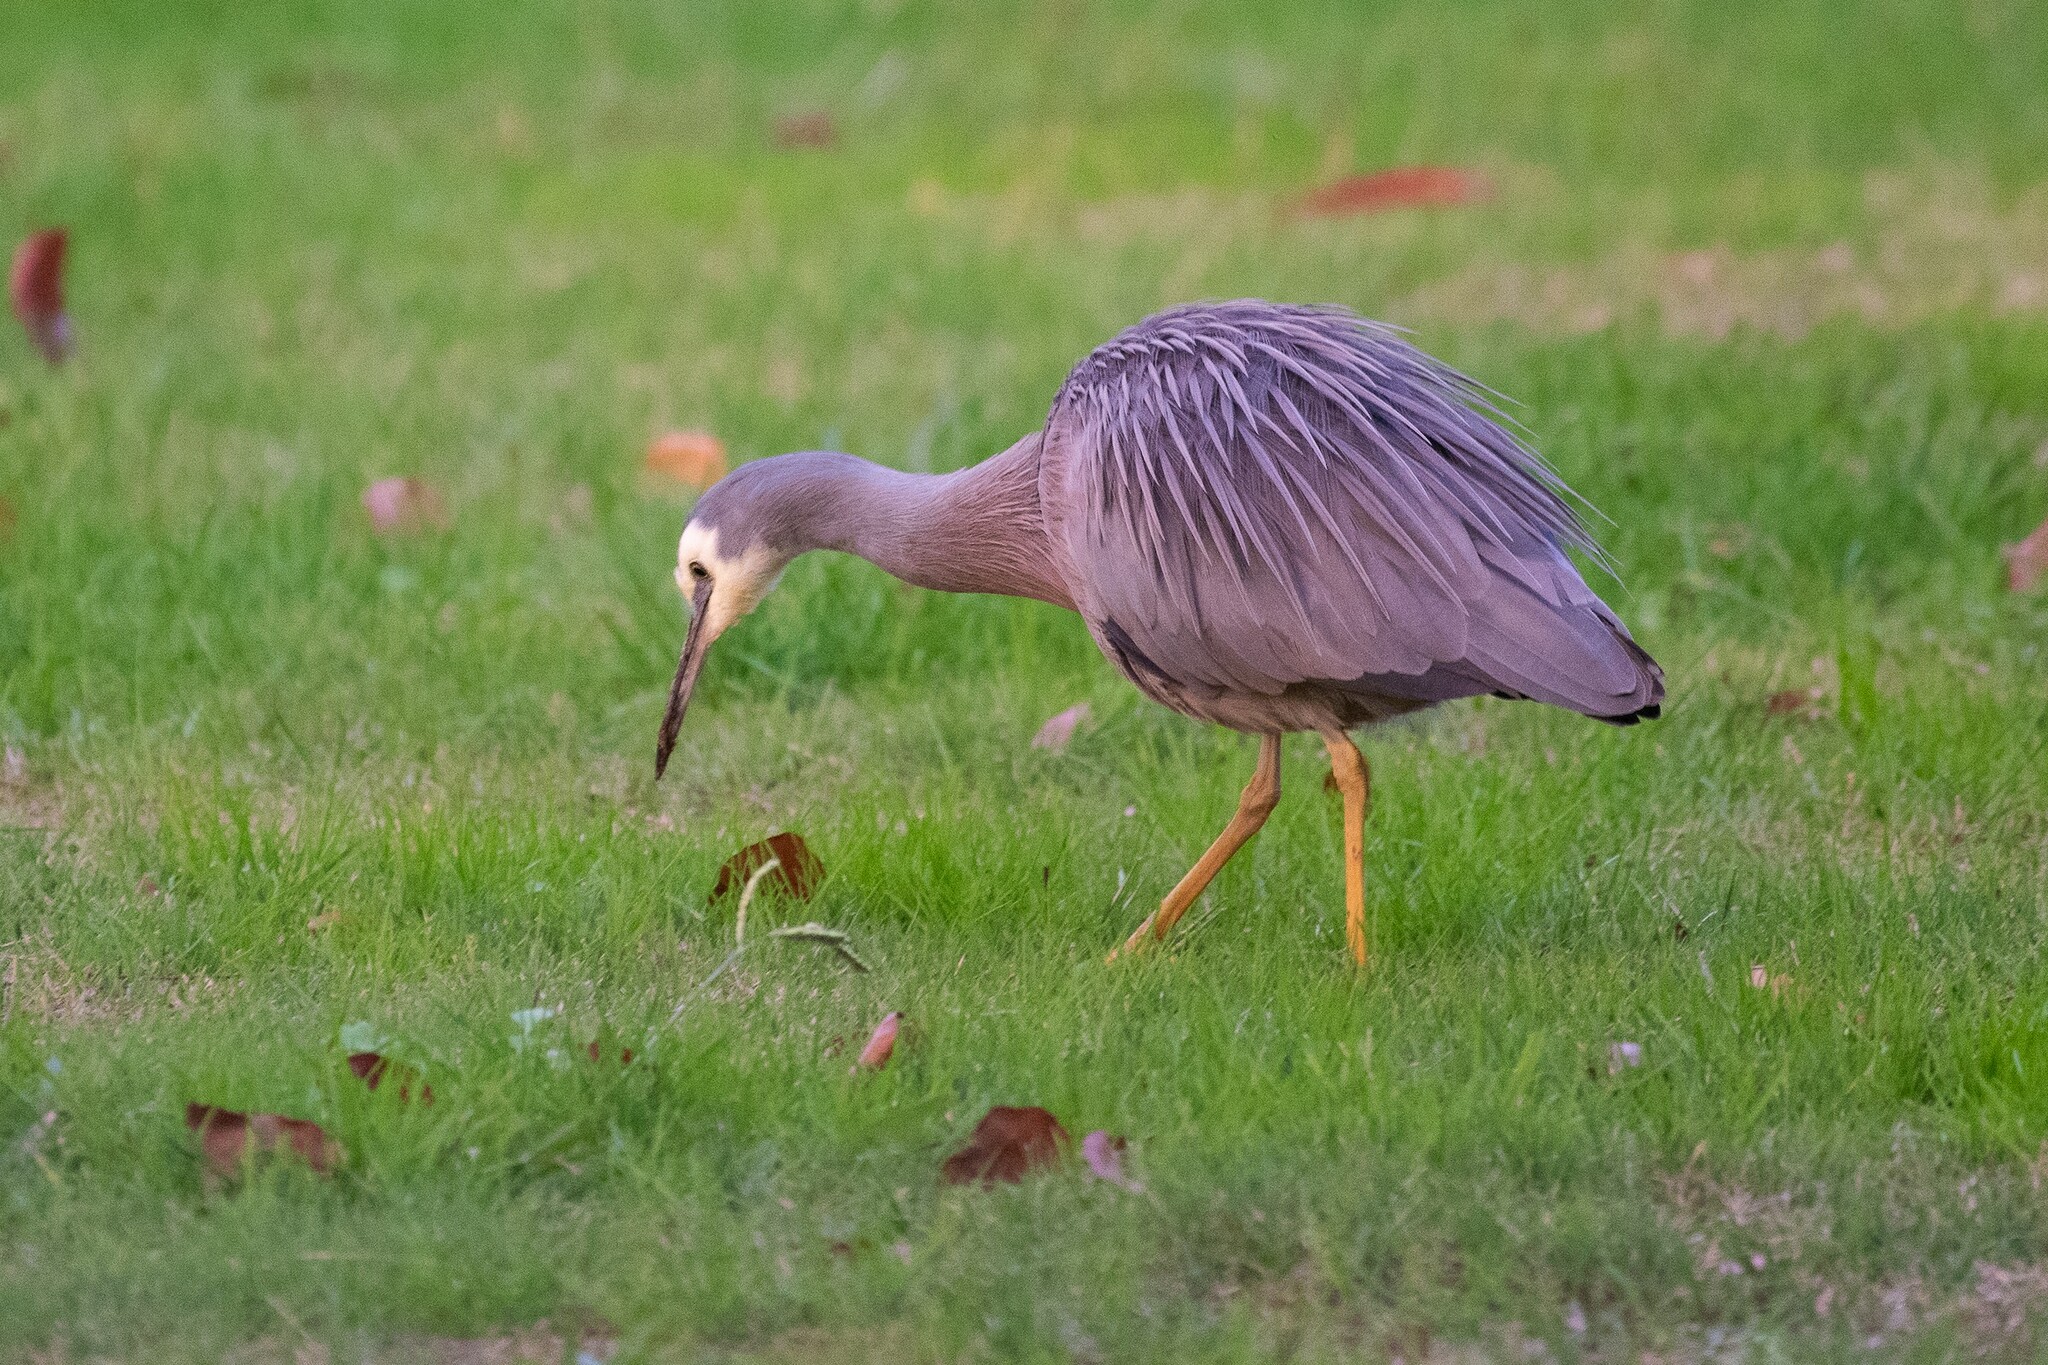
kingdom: Animalia
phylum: Chordata
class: Aves
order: Pelecaniformes
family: Ardeidae
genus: Egretta
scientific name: Egretta novaehollandiae
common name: White-faced heron
